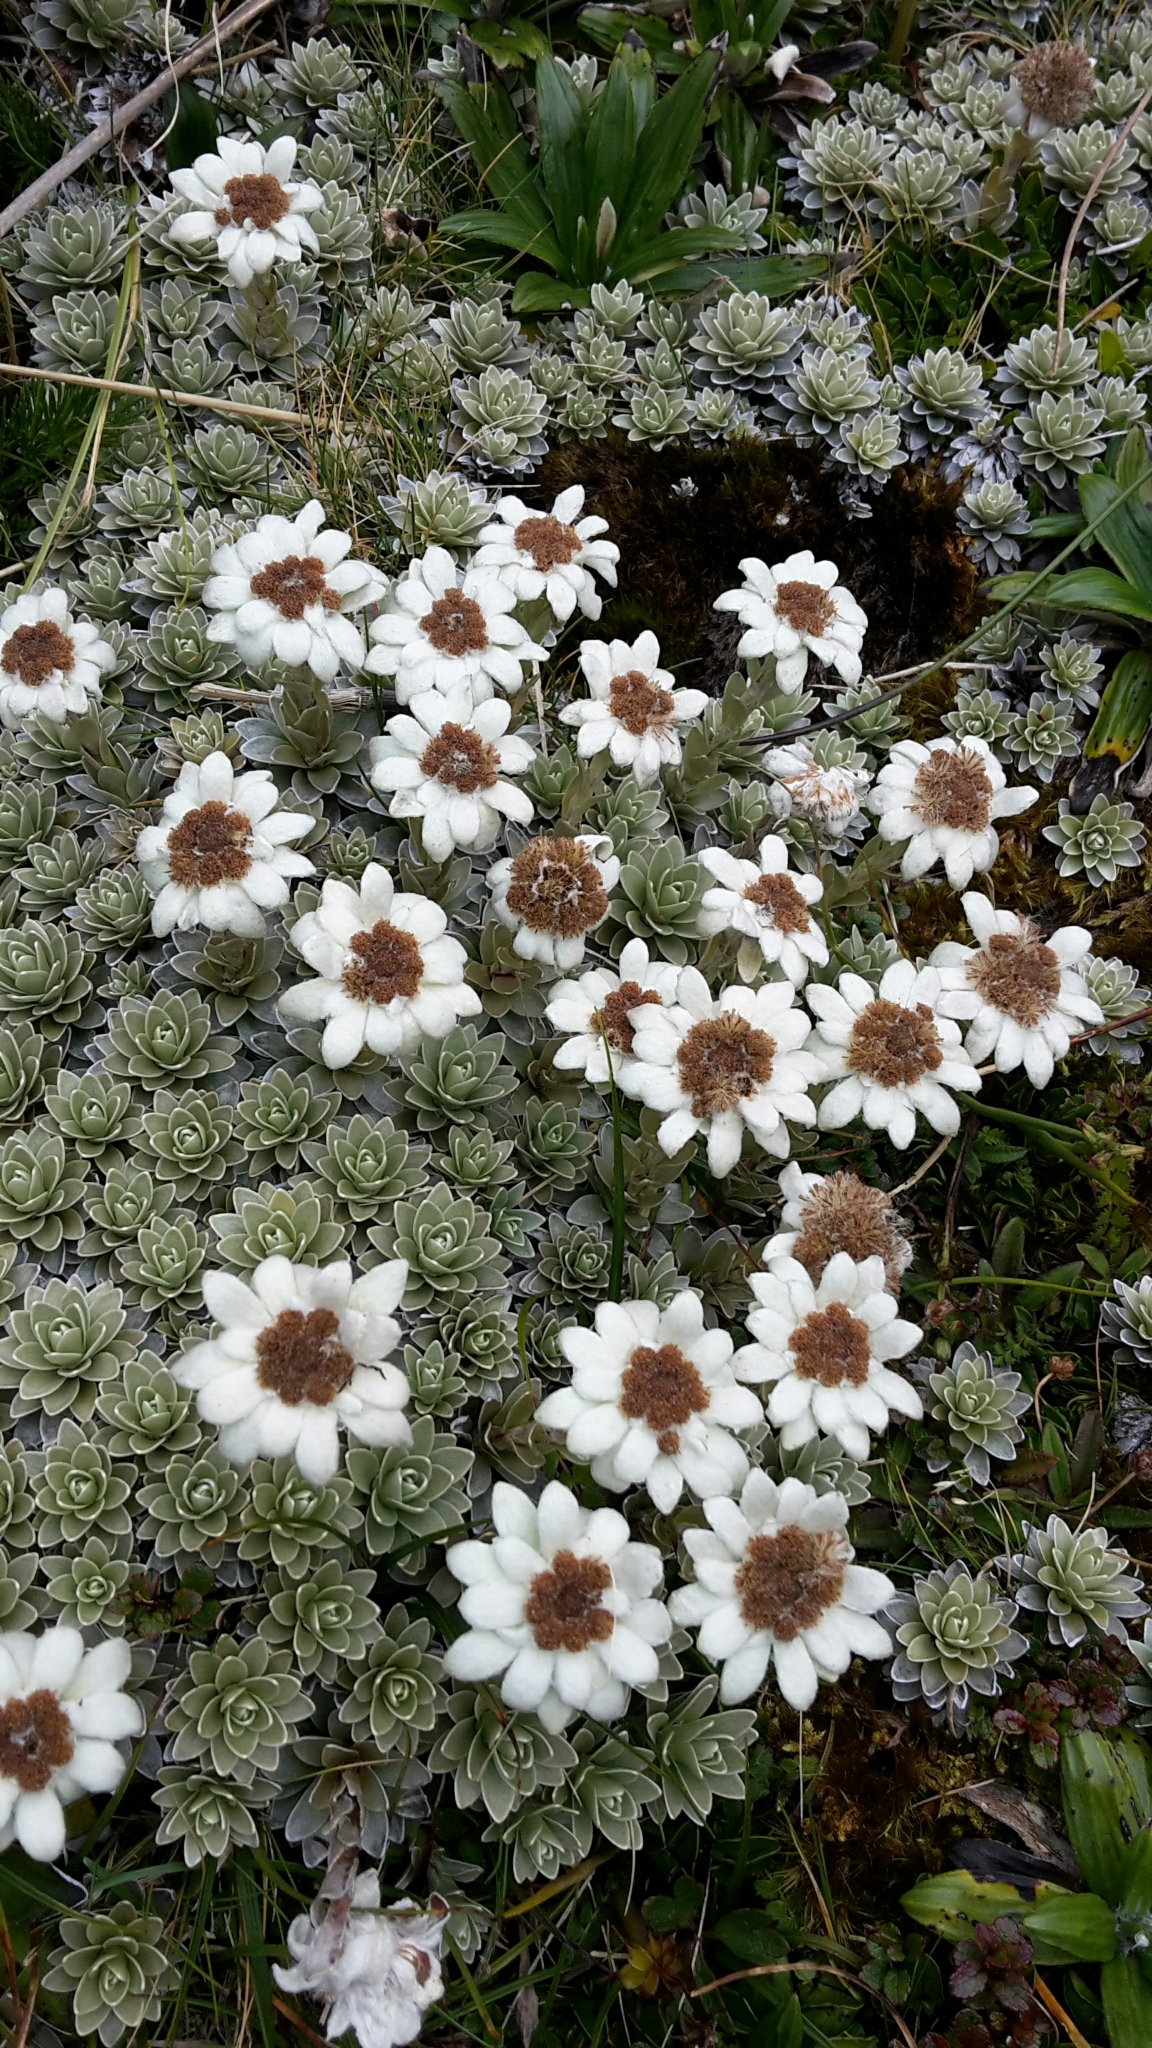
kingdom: Plantae
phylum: Tracheophyta
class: Magnoliopsida
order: Asterales
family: Asteraceae
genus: Leucogenes
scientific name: Leucogenes leontopodium
